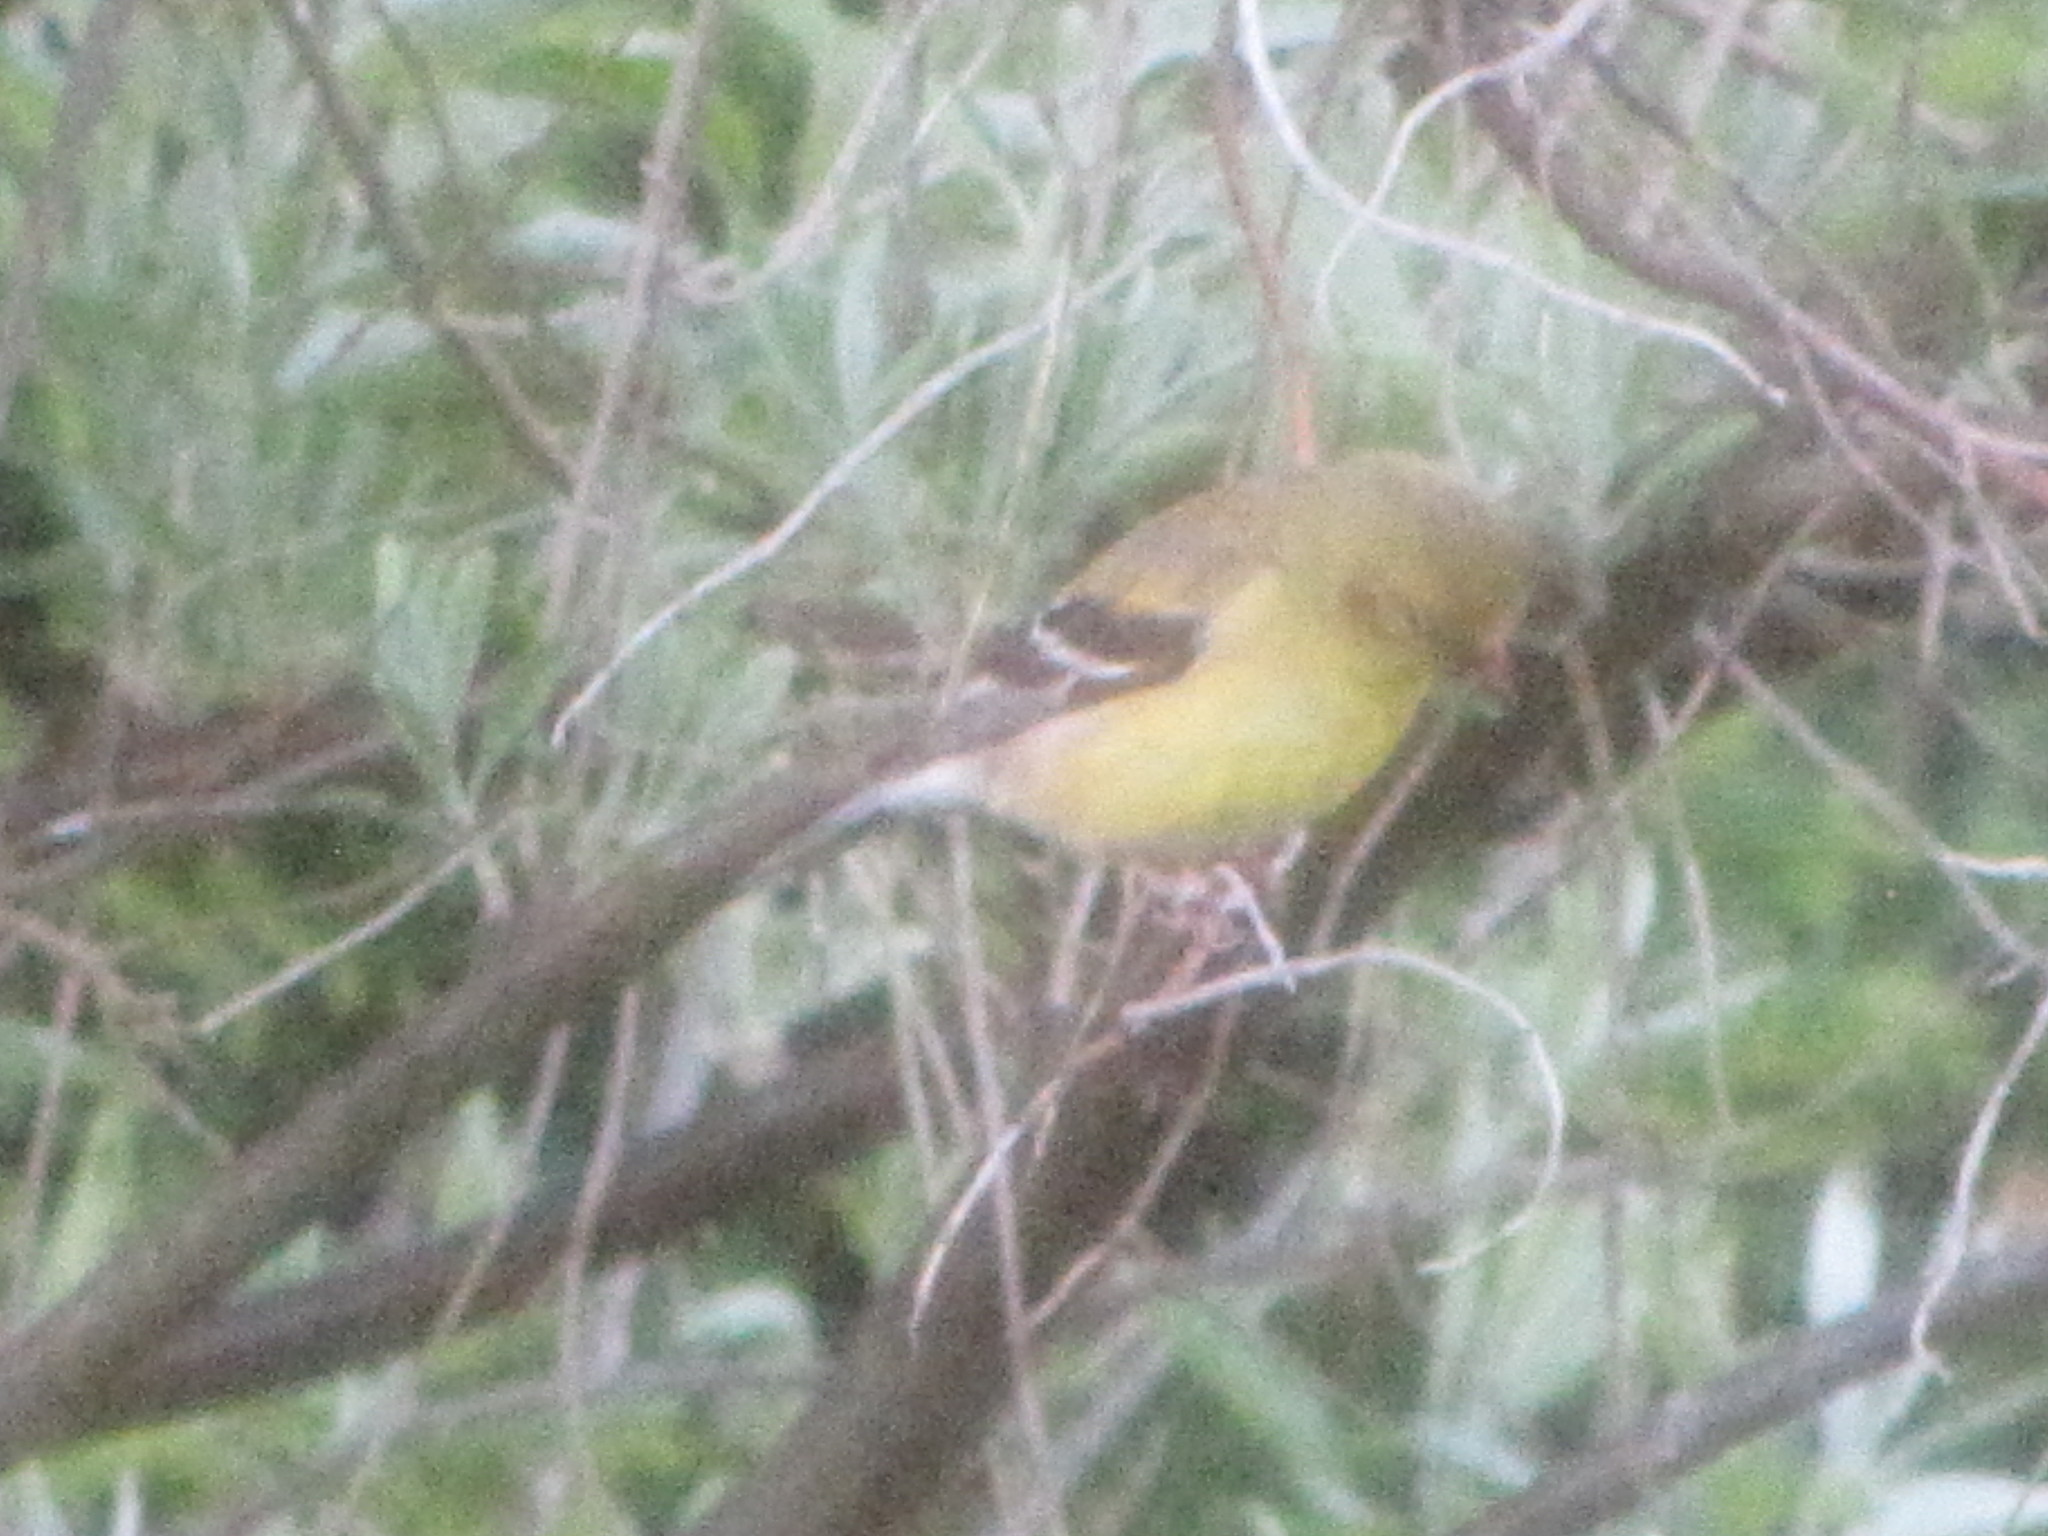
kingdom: Animalia
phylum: Chordata
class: Aves
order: Passeriformes
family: Fringillidae
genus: Spinus
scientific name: Spinus tristis
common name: American goldfinch
